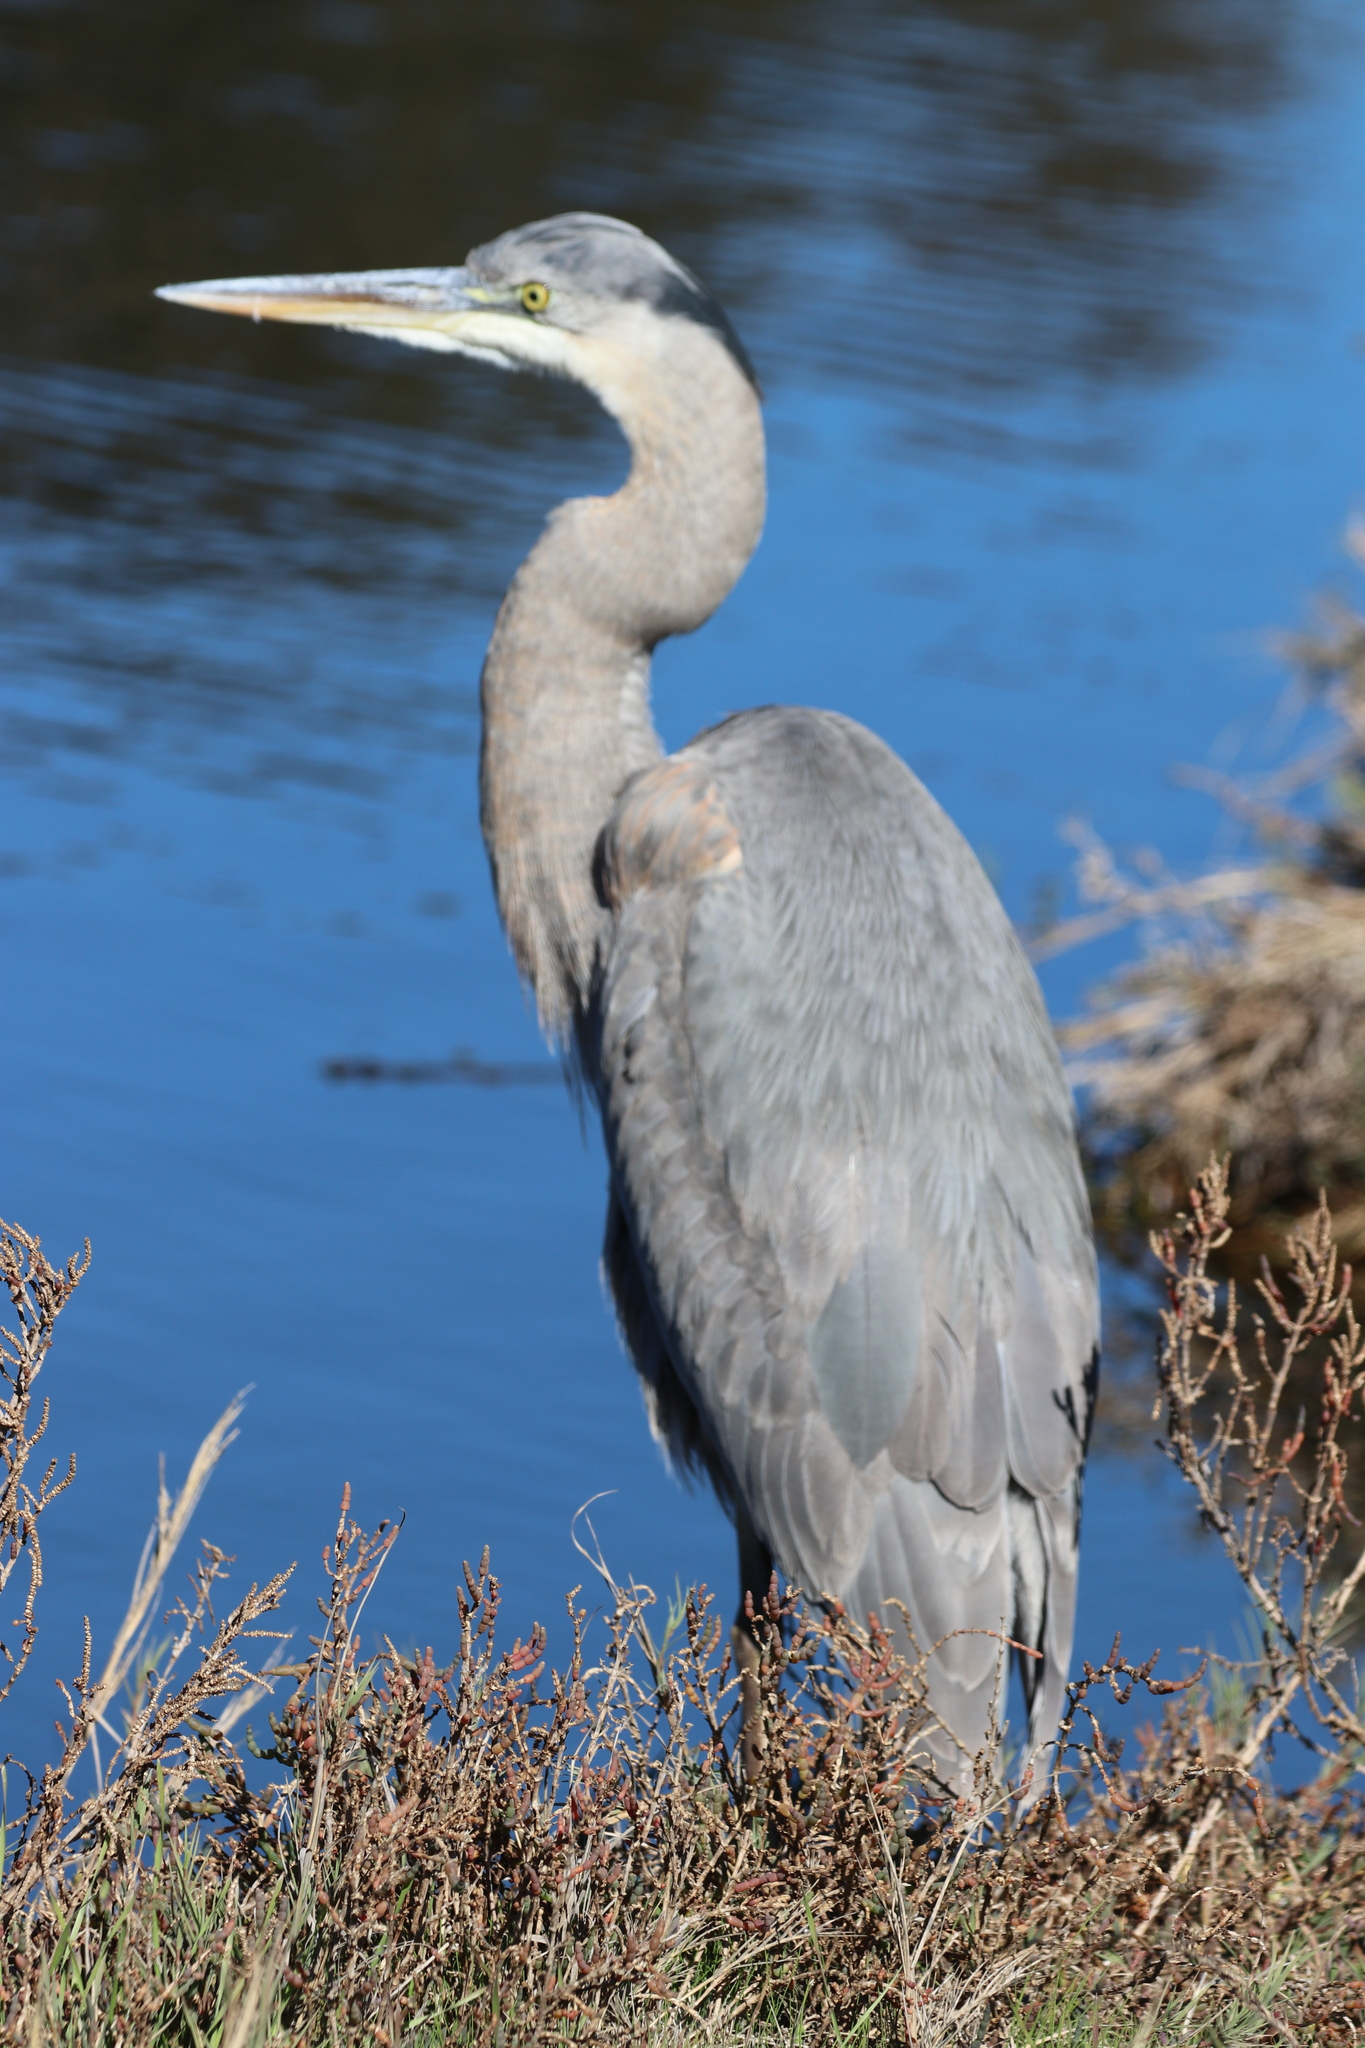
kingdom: Animalia
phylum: Chordata
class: Aves
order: Pelecaniformes
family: Ardeidae
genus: Ardea
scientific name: Ardea herodias
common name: Great blue heron
